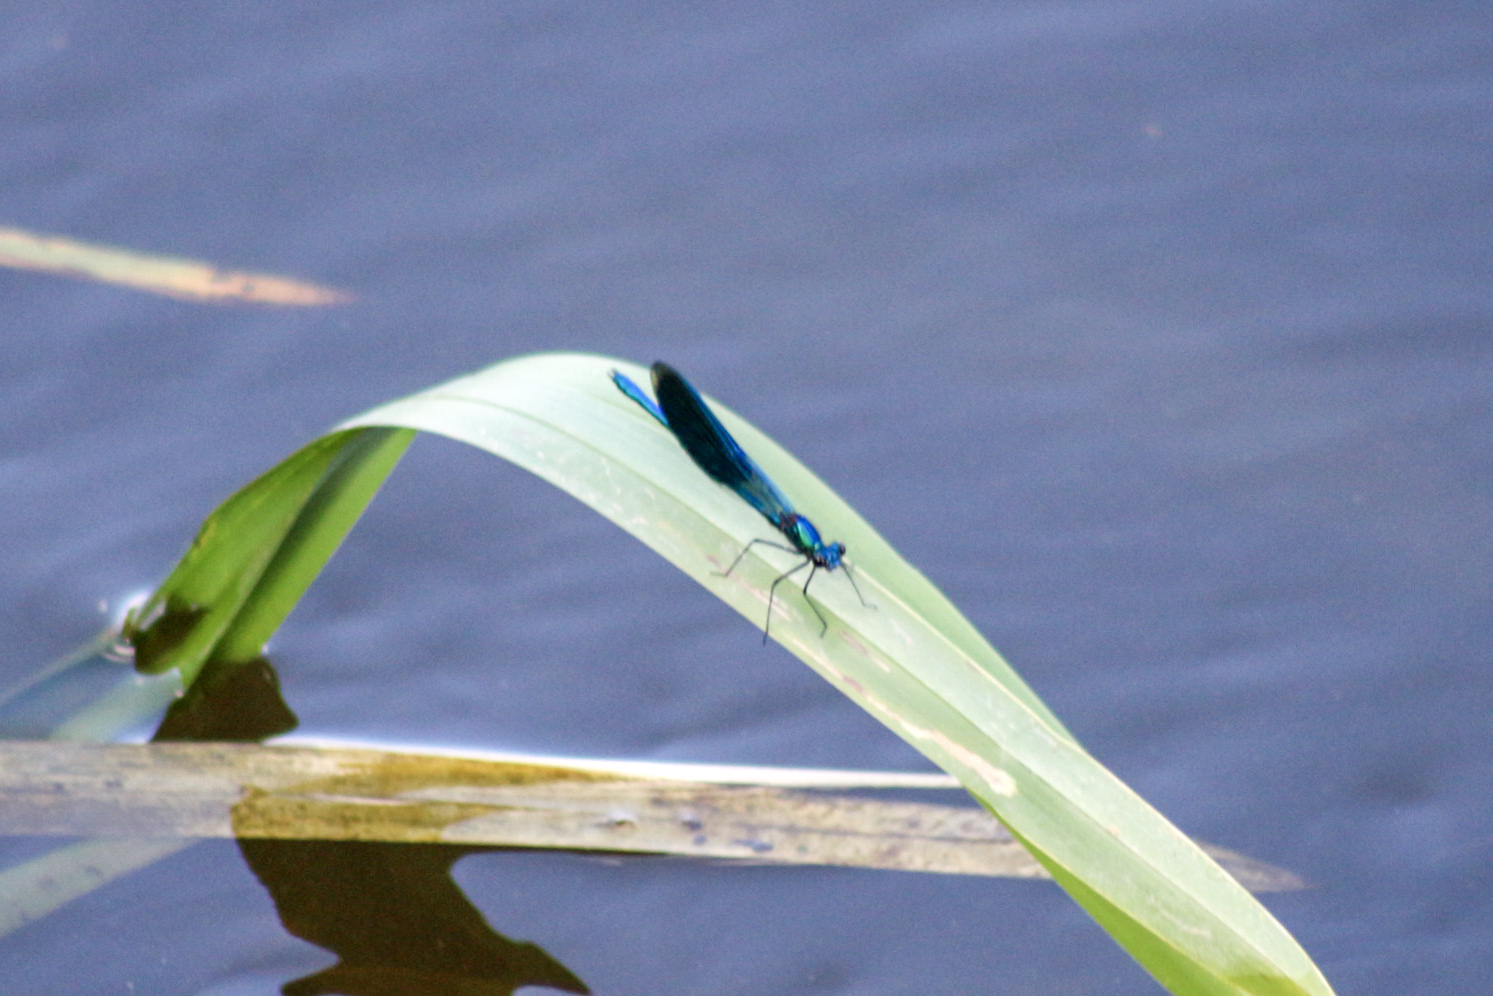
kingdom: Animalia
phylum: Arthropoda
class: Insecta
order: Odonata
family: Calopterygidae
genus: Calopteryx
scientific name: Calopteryx splendens
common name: Banded demoiselle
